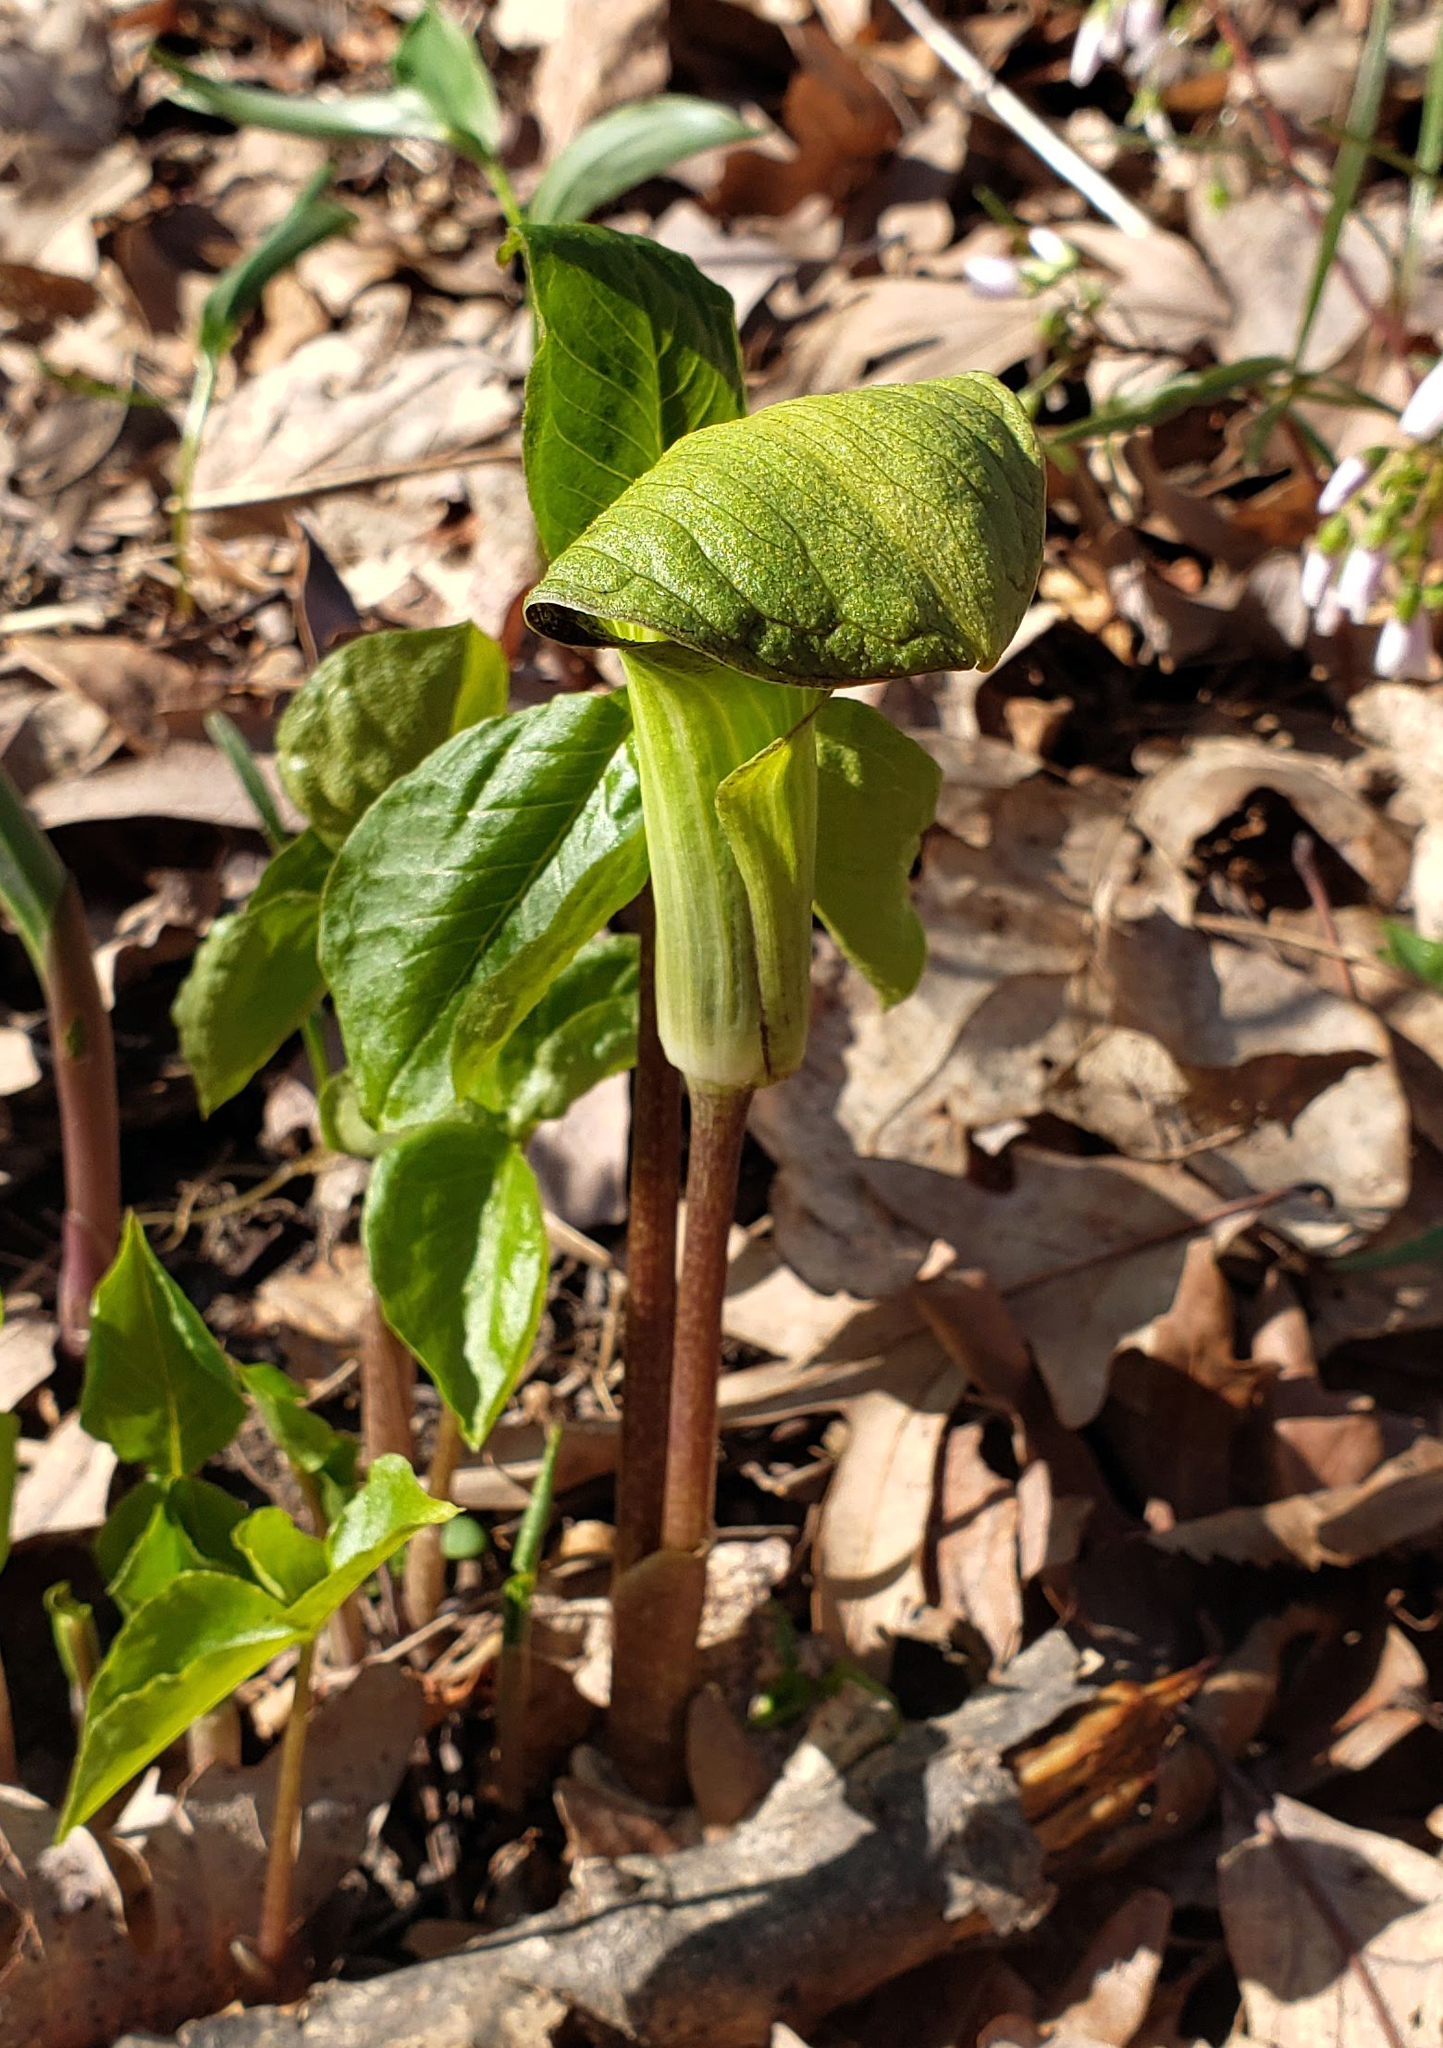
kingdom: Plantae
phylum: Tracheophyta
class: Liliopsida
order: Alismatales
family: Araceae
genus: Arisaema
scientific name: Arisaema triphyllum
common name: Jack-in-the-pulpit
